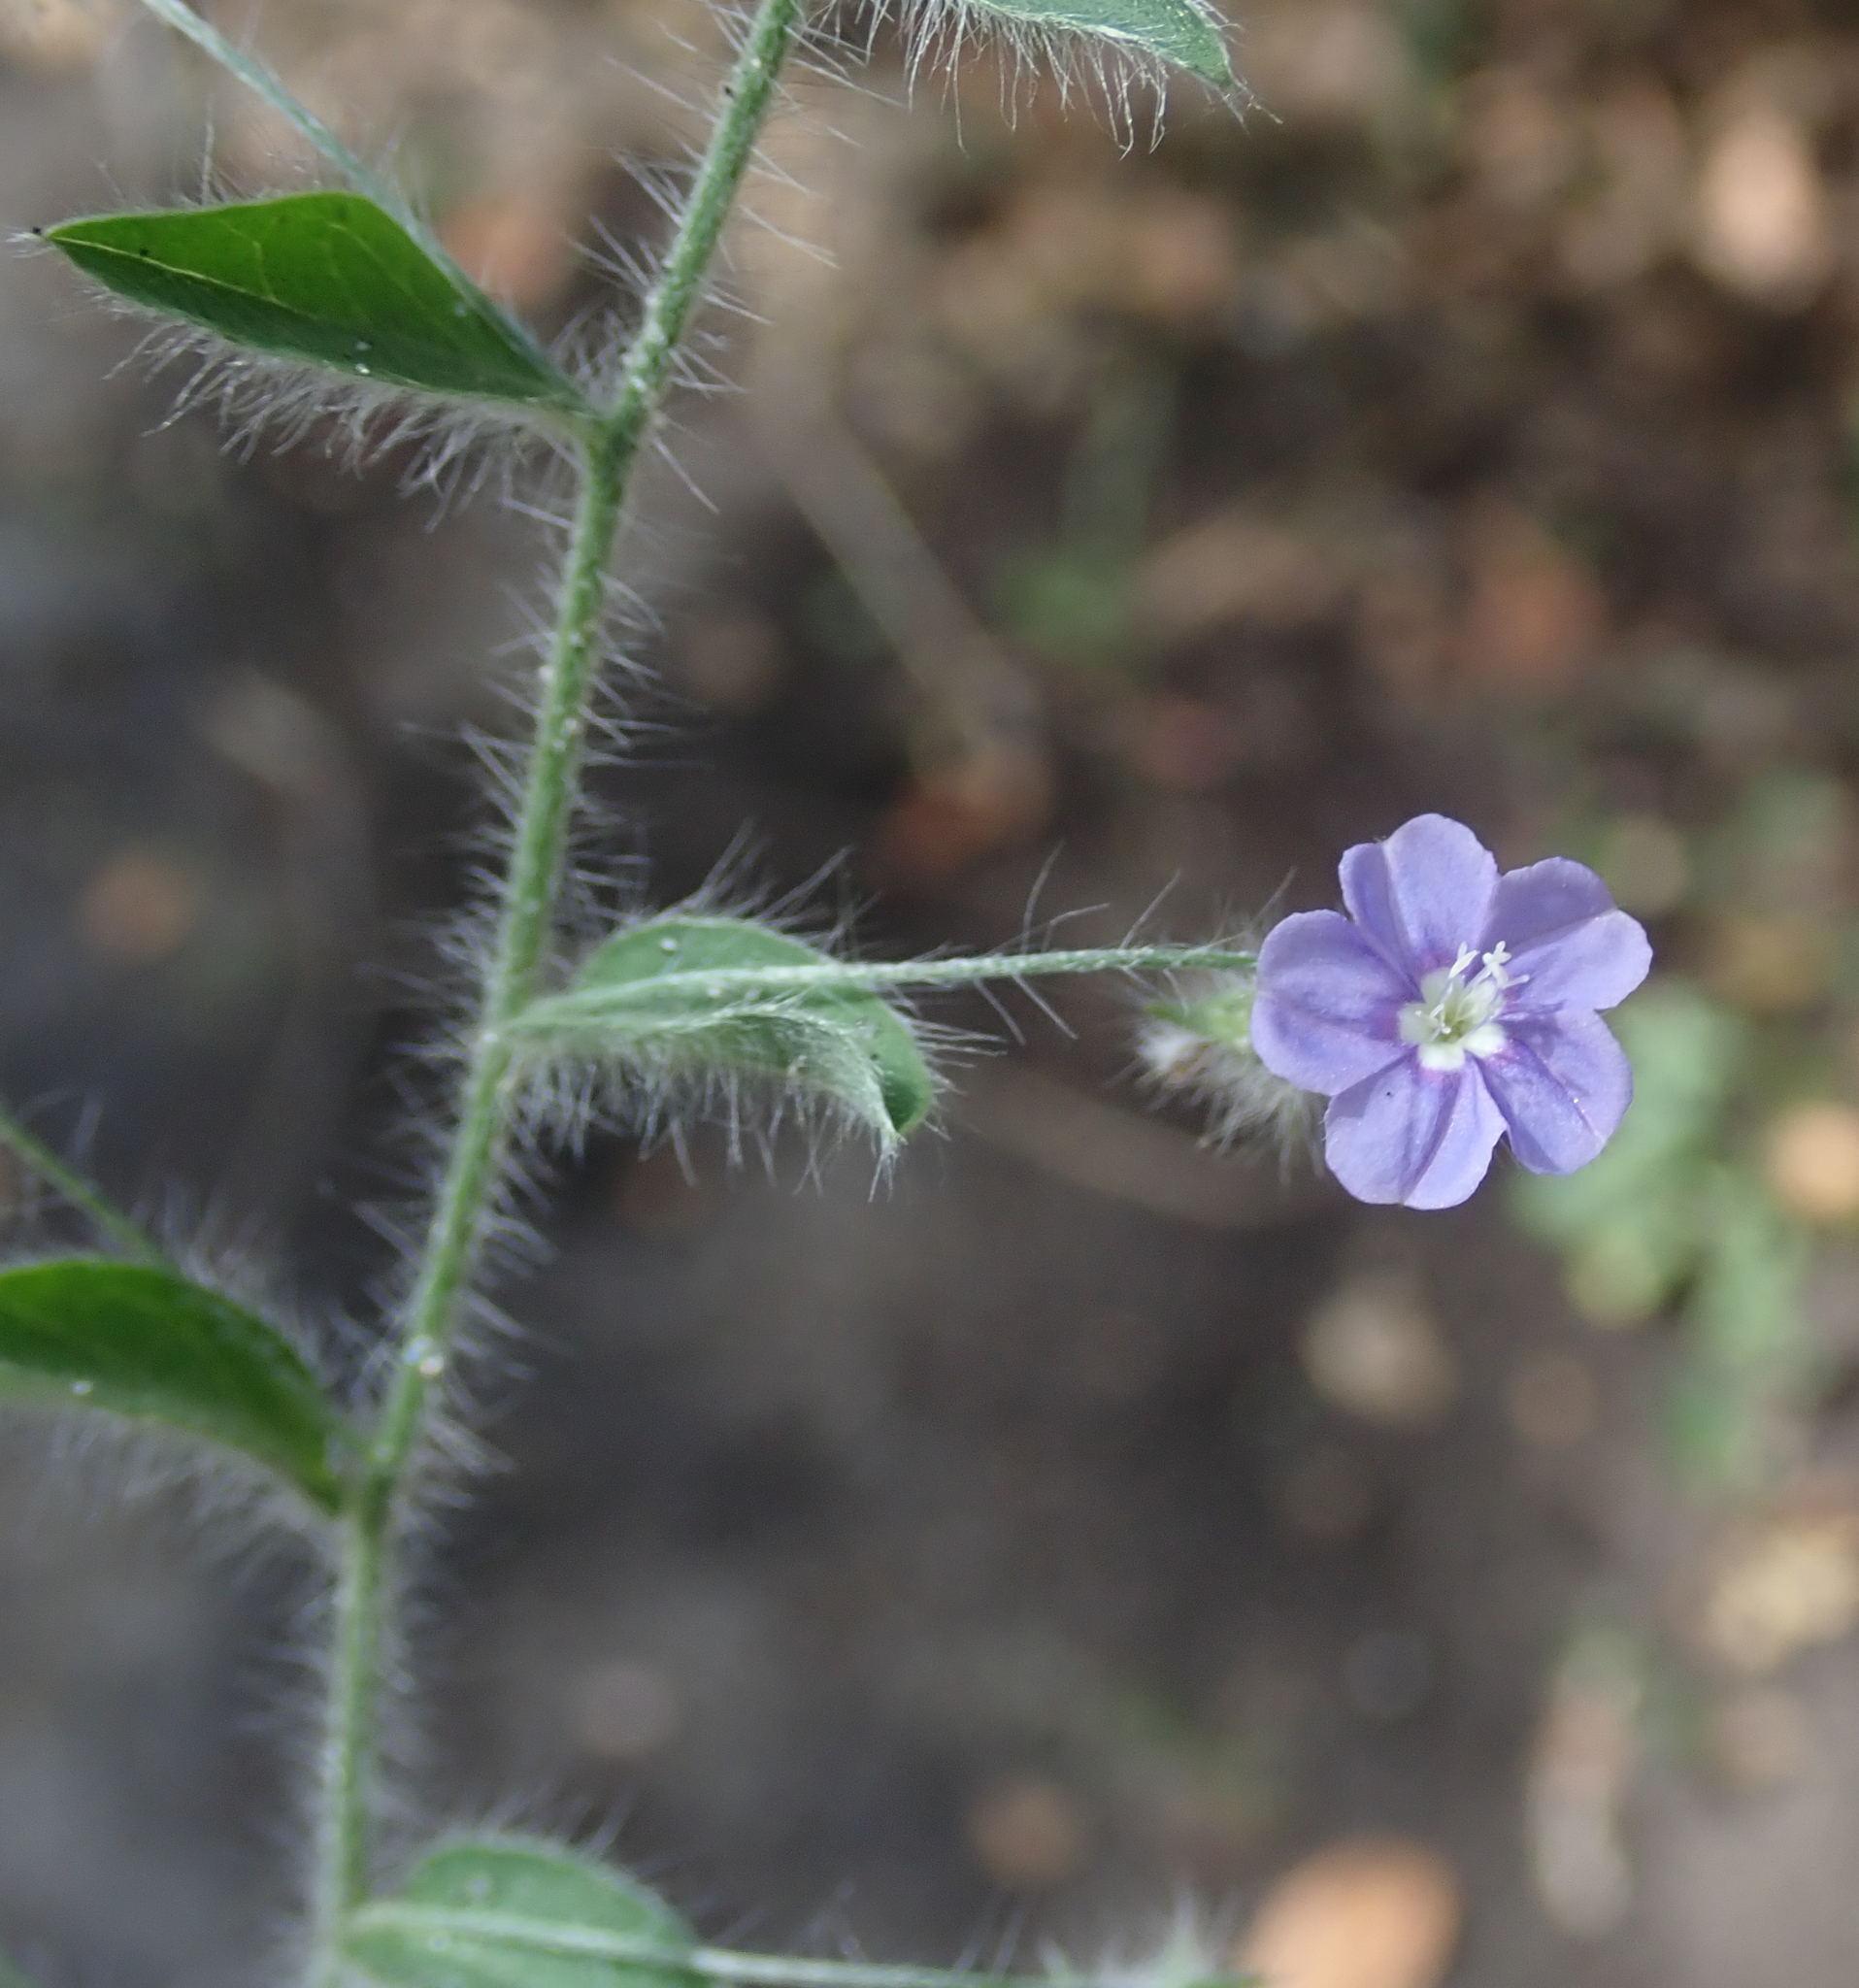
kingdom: Plantae
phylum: Tracheophyta
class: Magnoliopsida
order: Solanales
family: Convolvulaceae
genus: Evolvulus
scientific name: Evolvulus alsinoides
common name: Slender dwarf morning-glory
